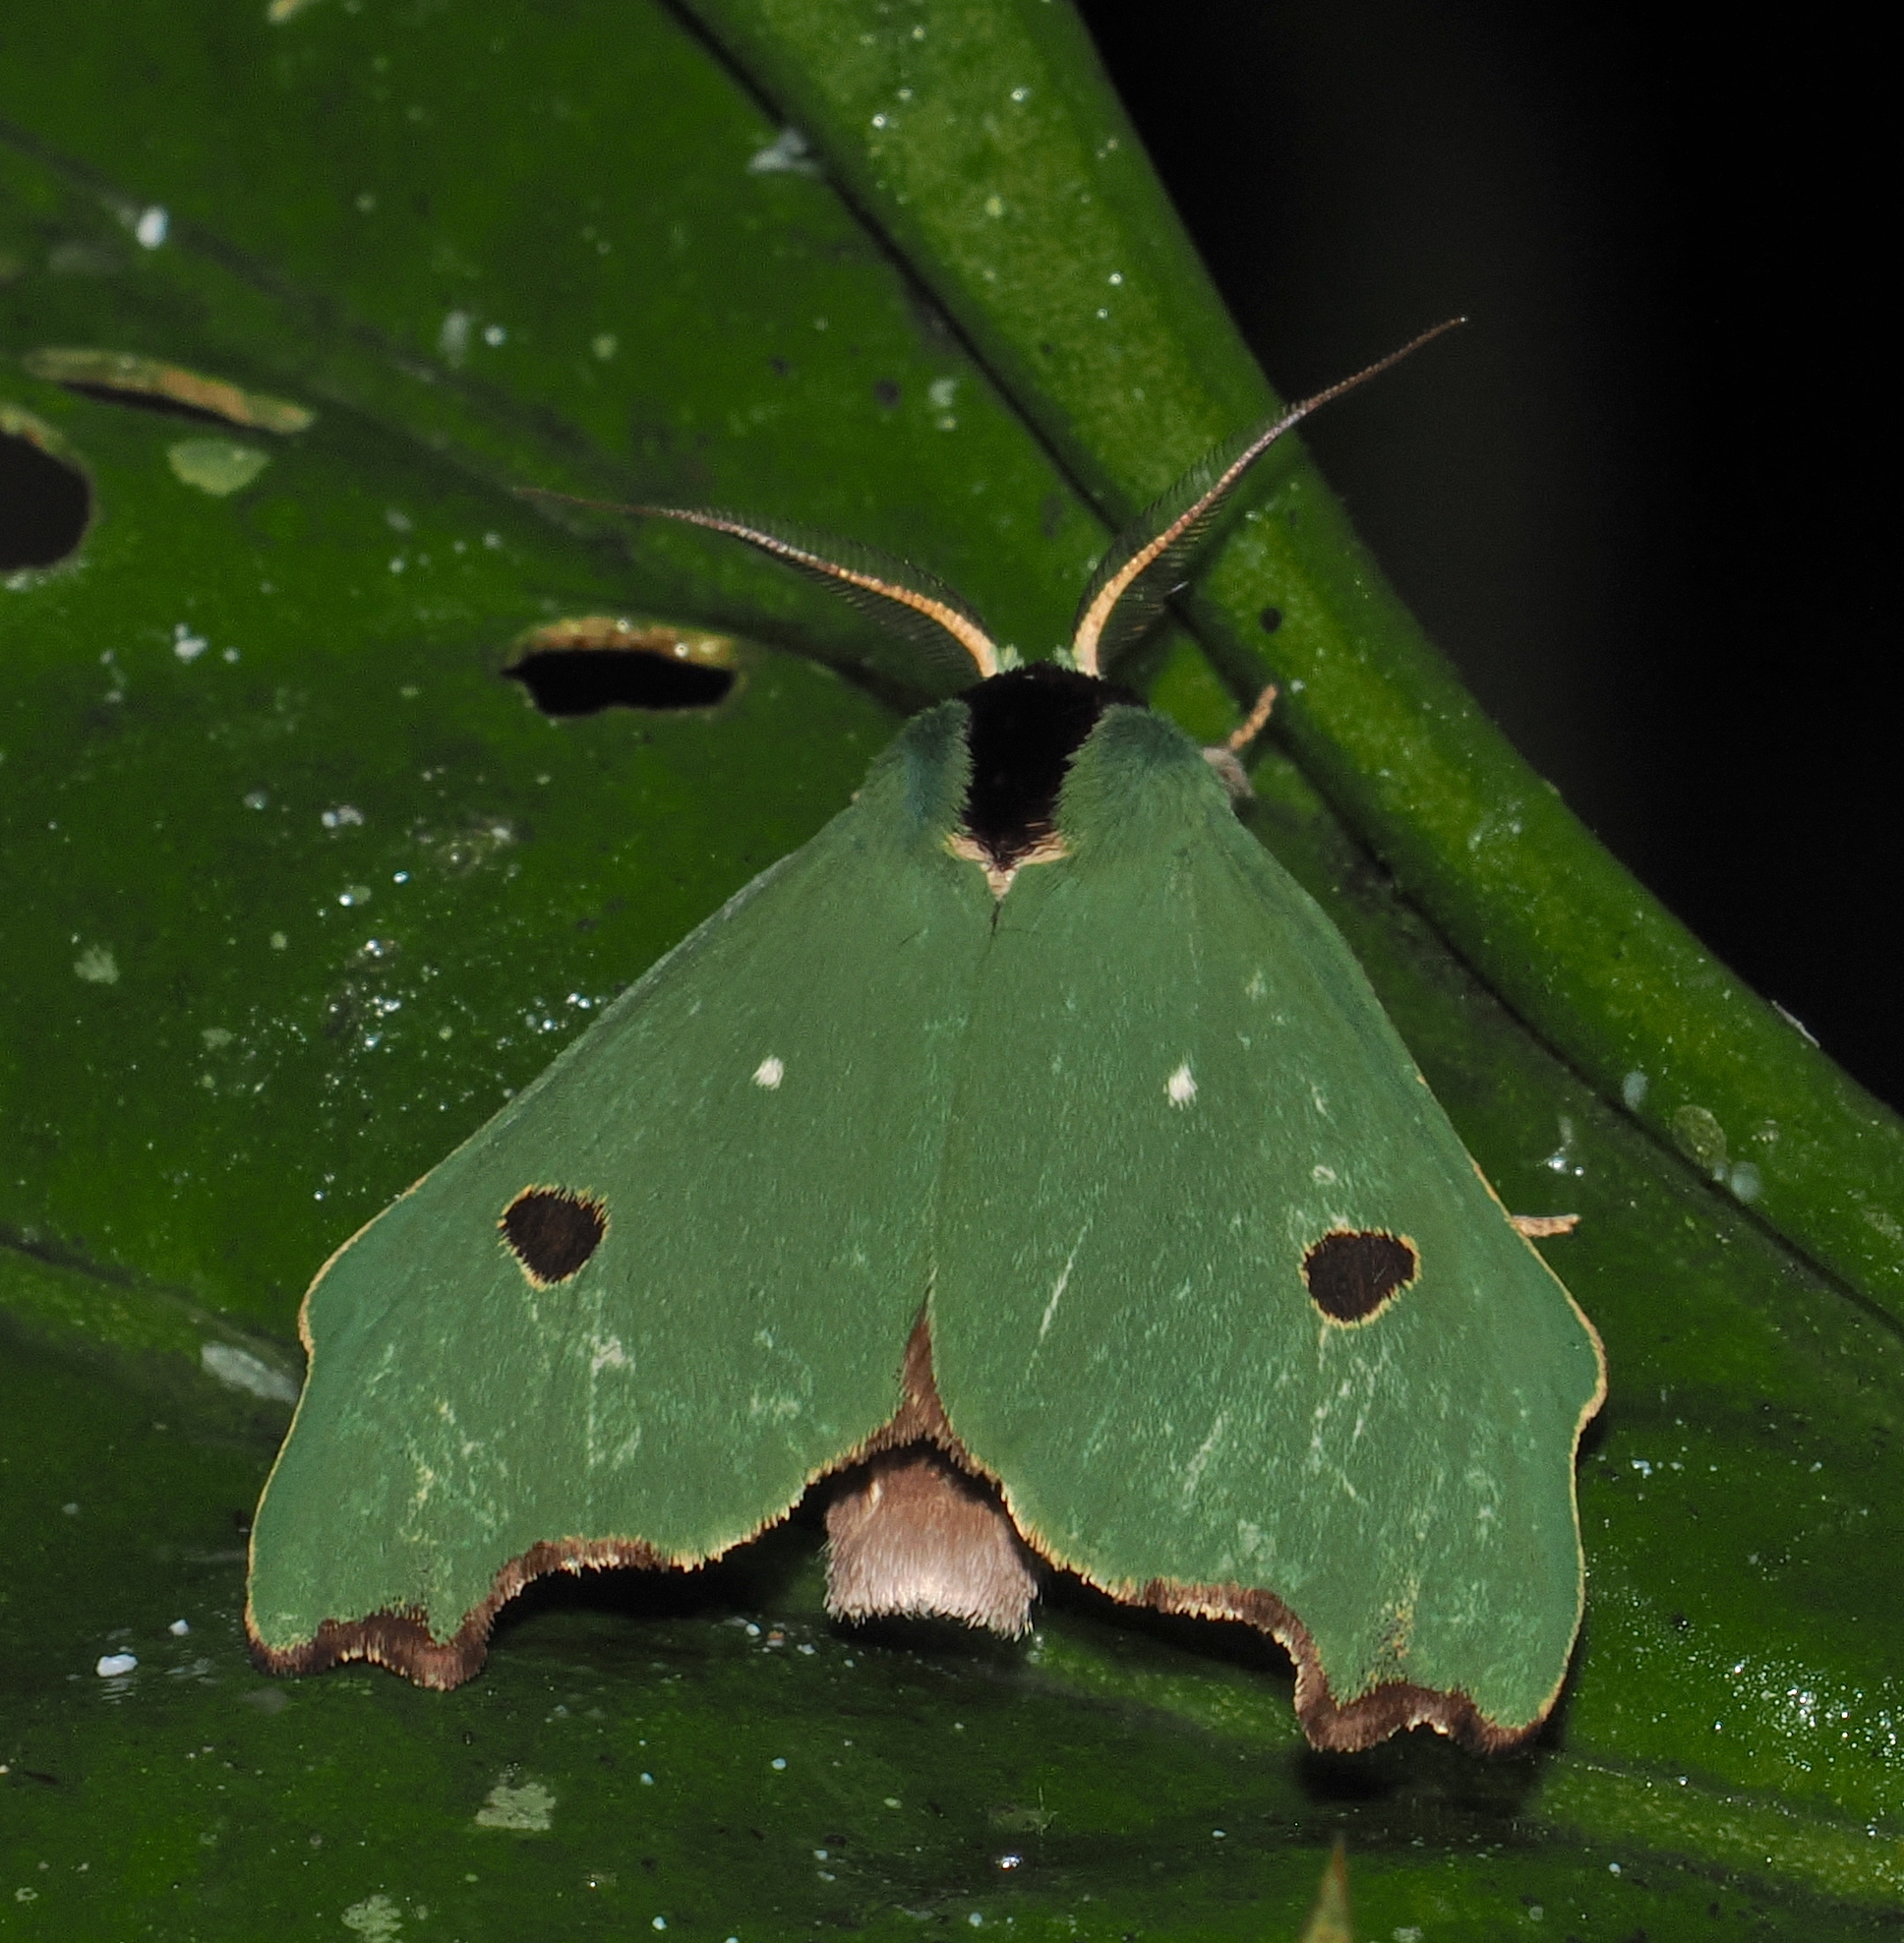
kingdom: Animalia
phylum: Arthropoda
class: Insecta
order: Lepidoptera
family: Notodontidae
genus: Rosema
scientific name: Rosema melini
